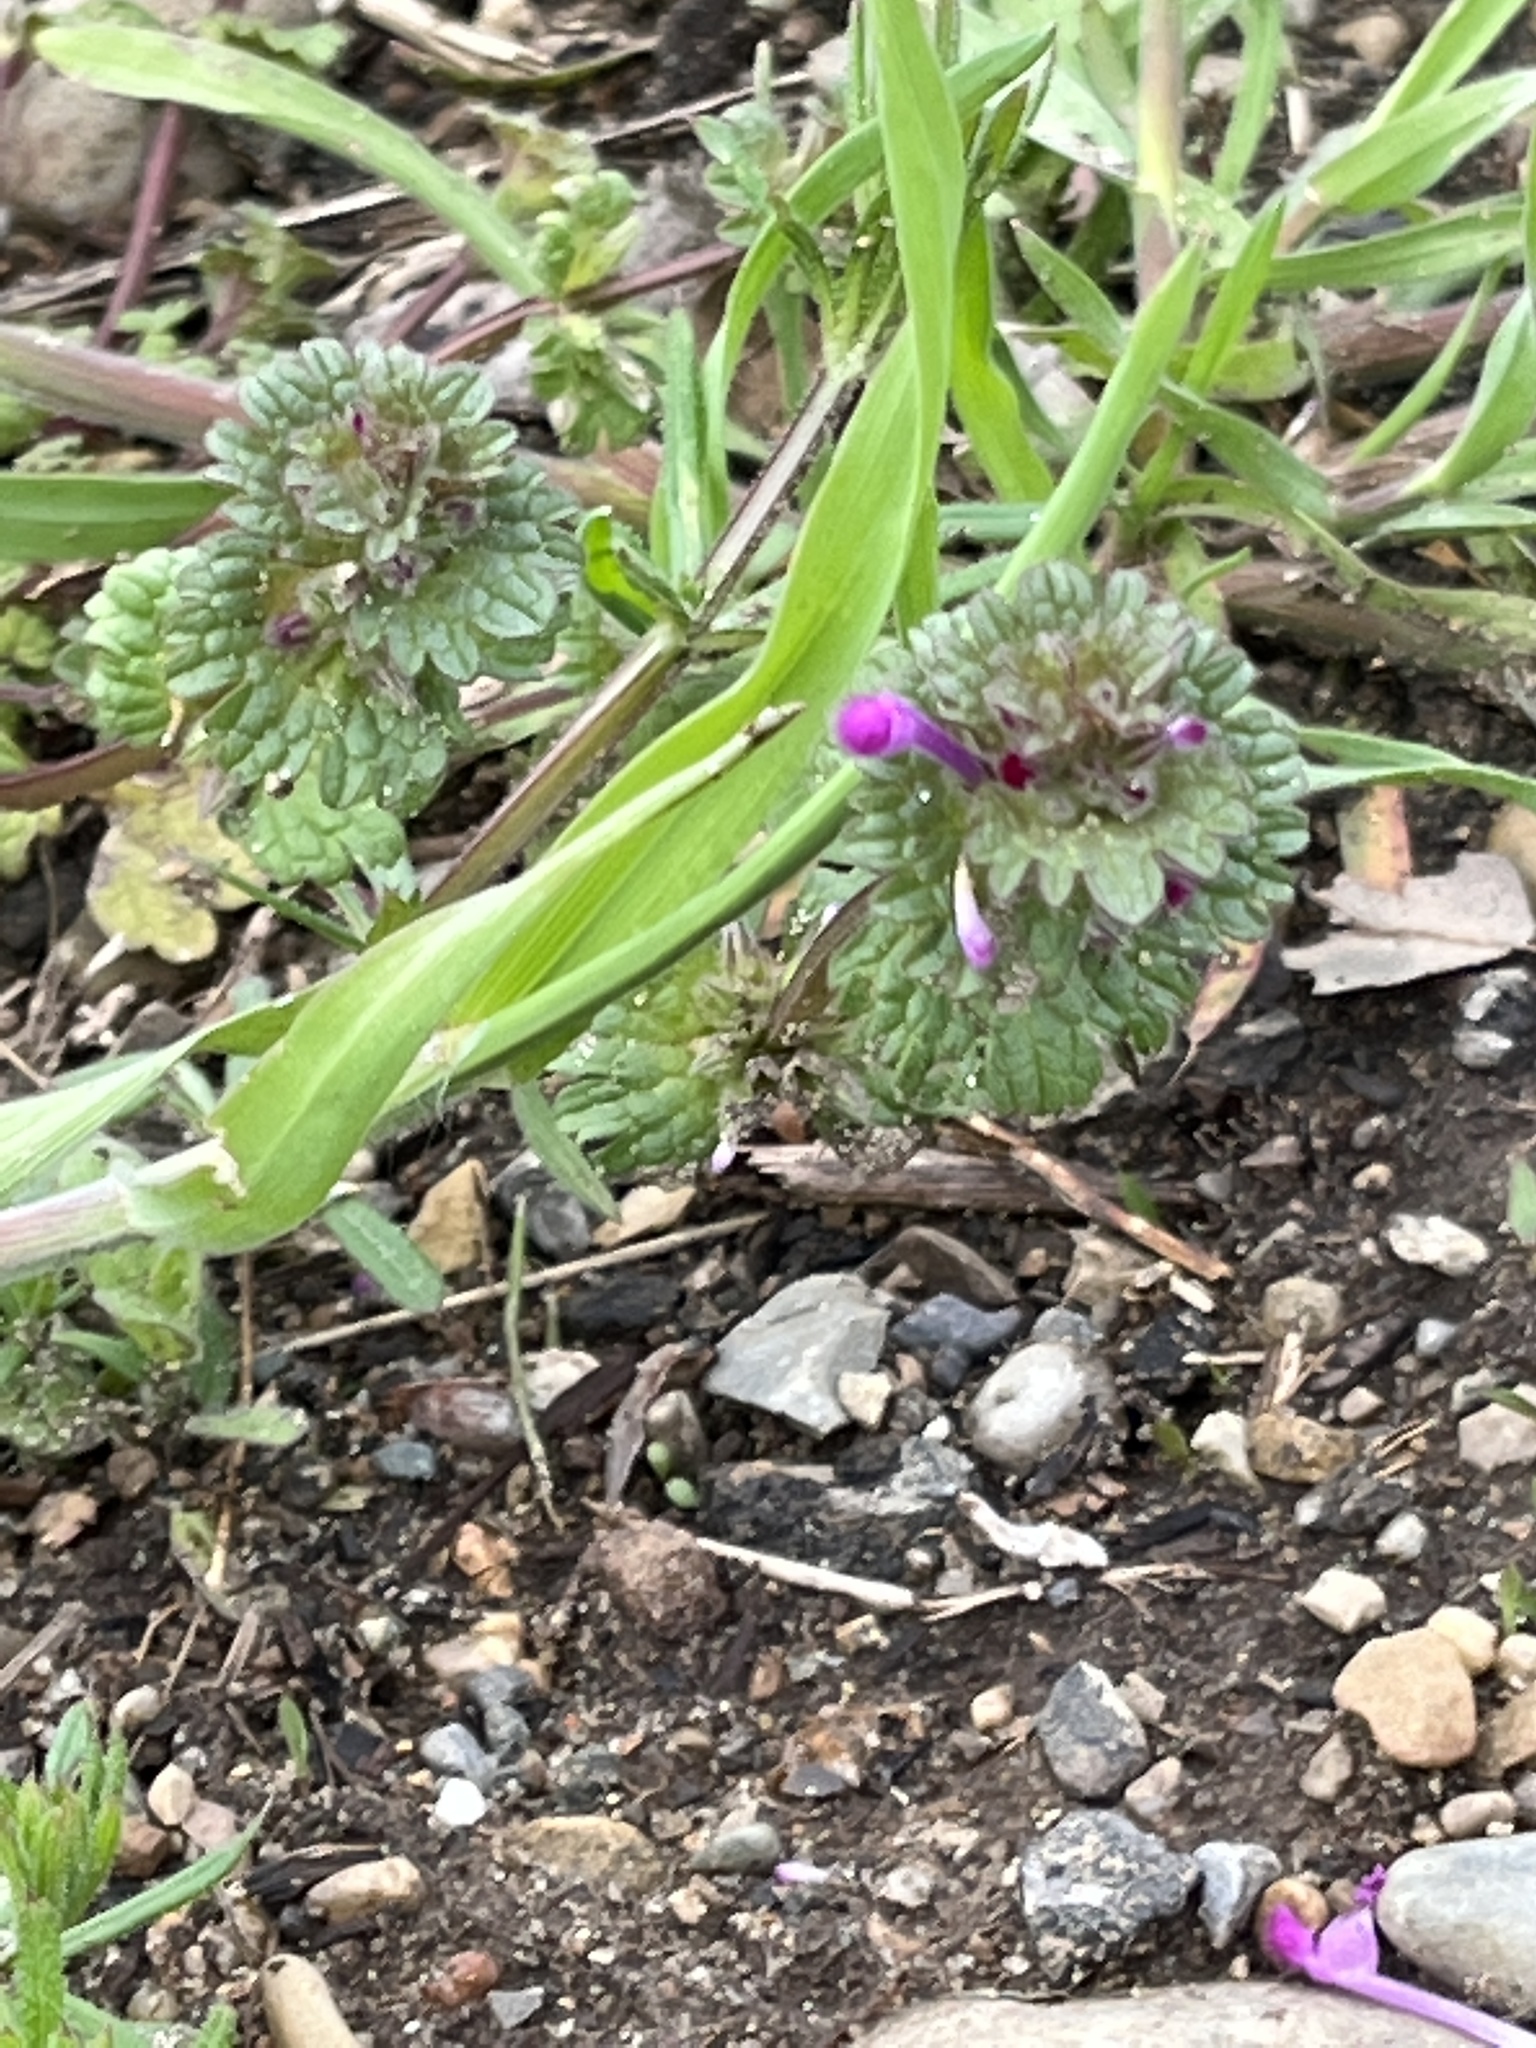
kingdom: Plantae
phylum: Tracheophyta
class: Magnoliopsida
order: Lamiales
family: Lamiaceae
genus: Lamium
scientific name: Lamium amplexicaule
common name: Henbit dead-nettle
